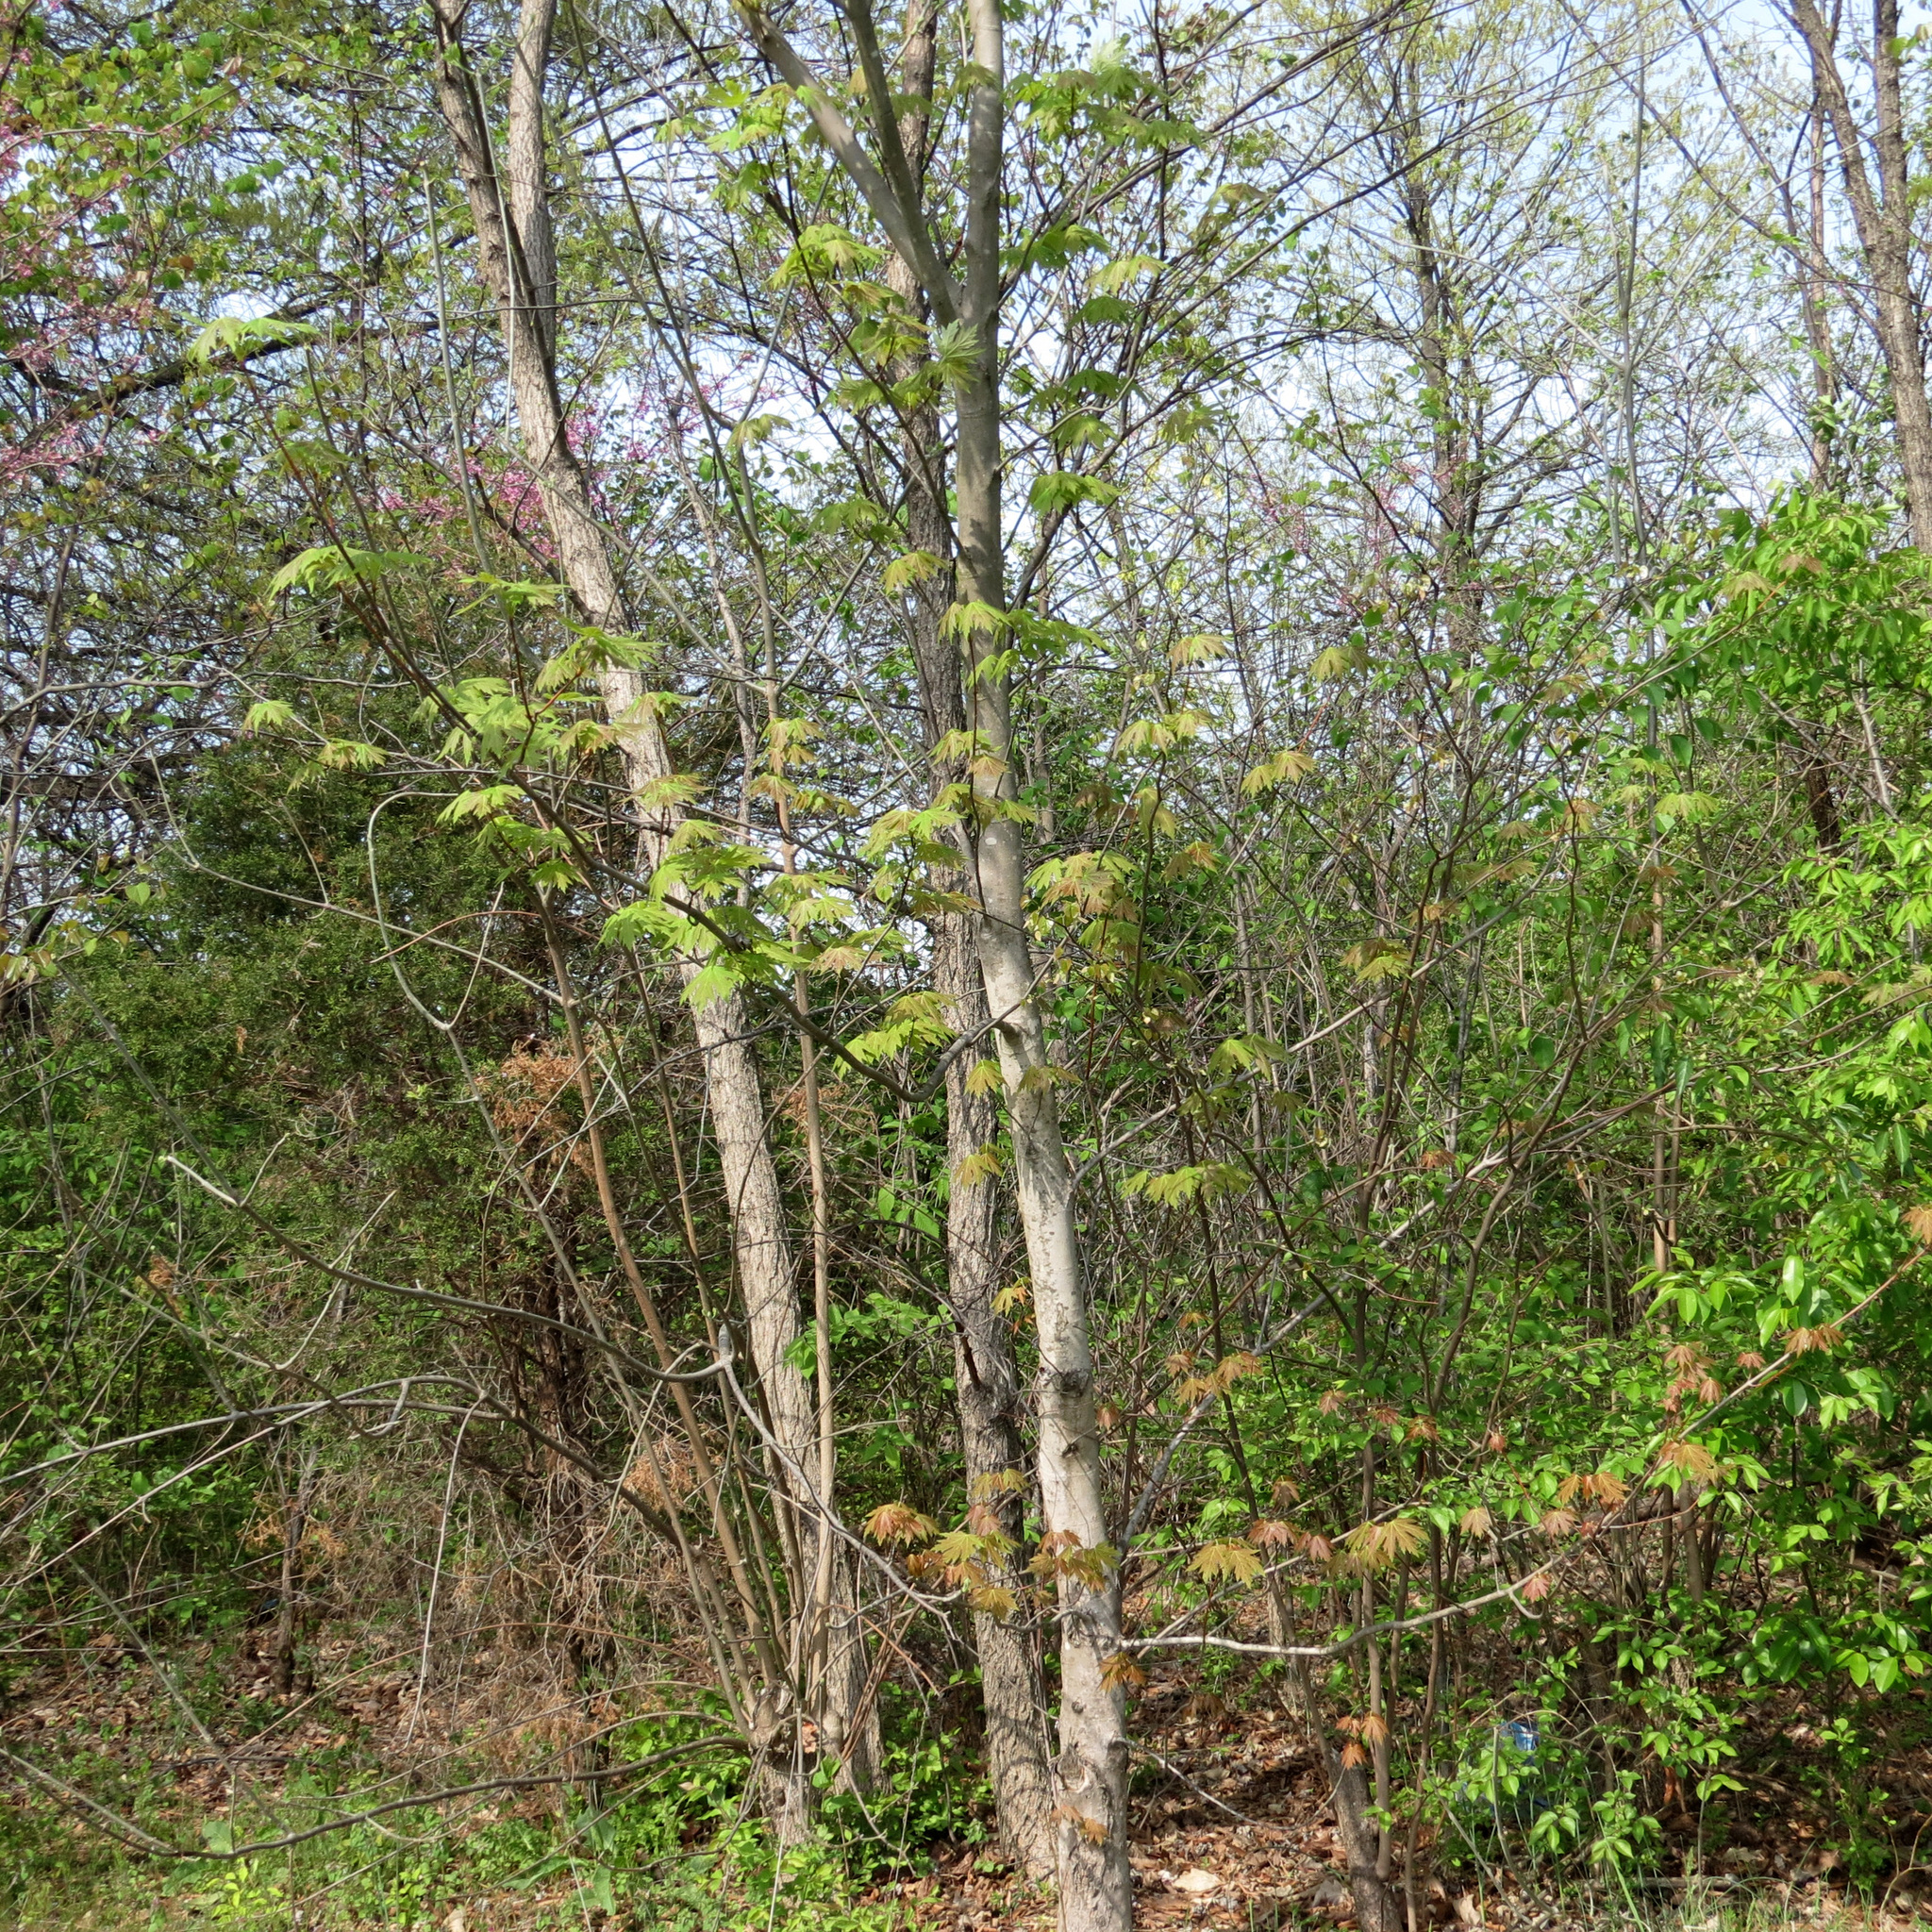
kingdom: Plantae
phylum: Tracheophyta
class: Magnoliopsida
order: Sapindales
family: Sapindaceae
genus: Acer
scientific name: Acer saccharinum
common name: Silver maple
